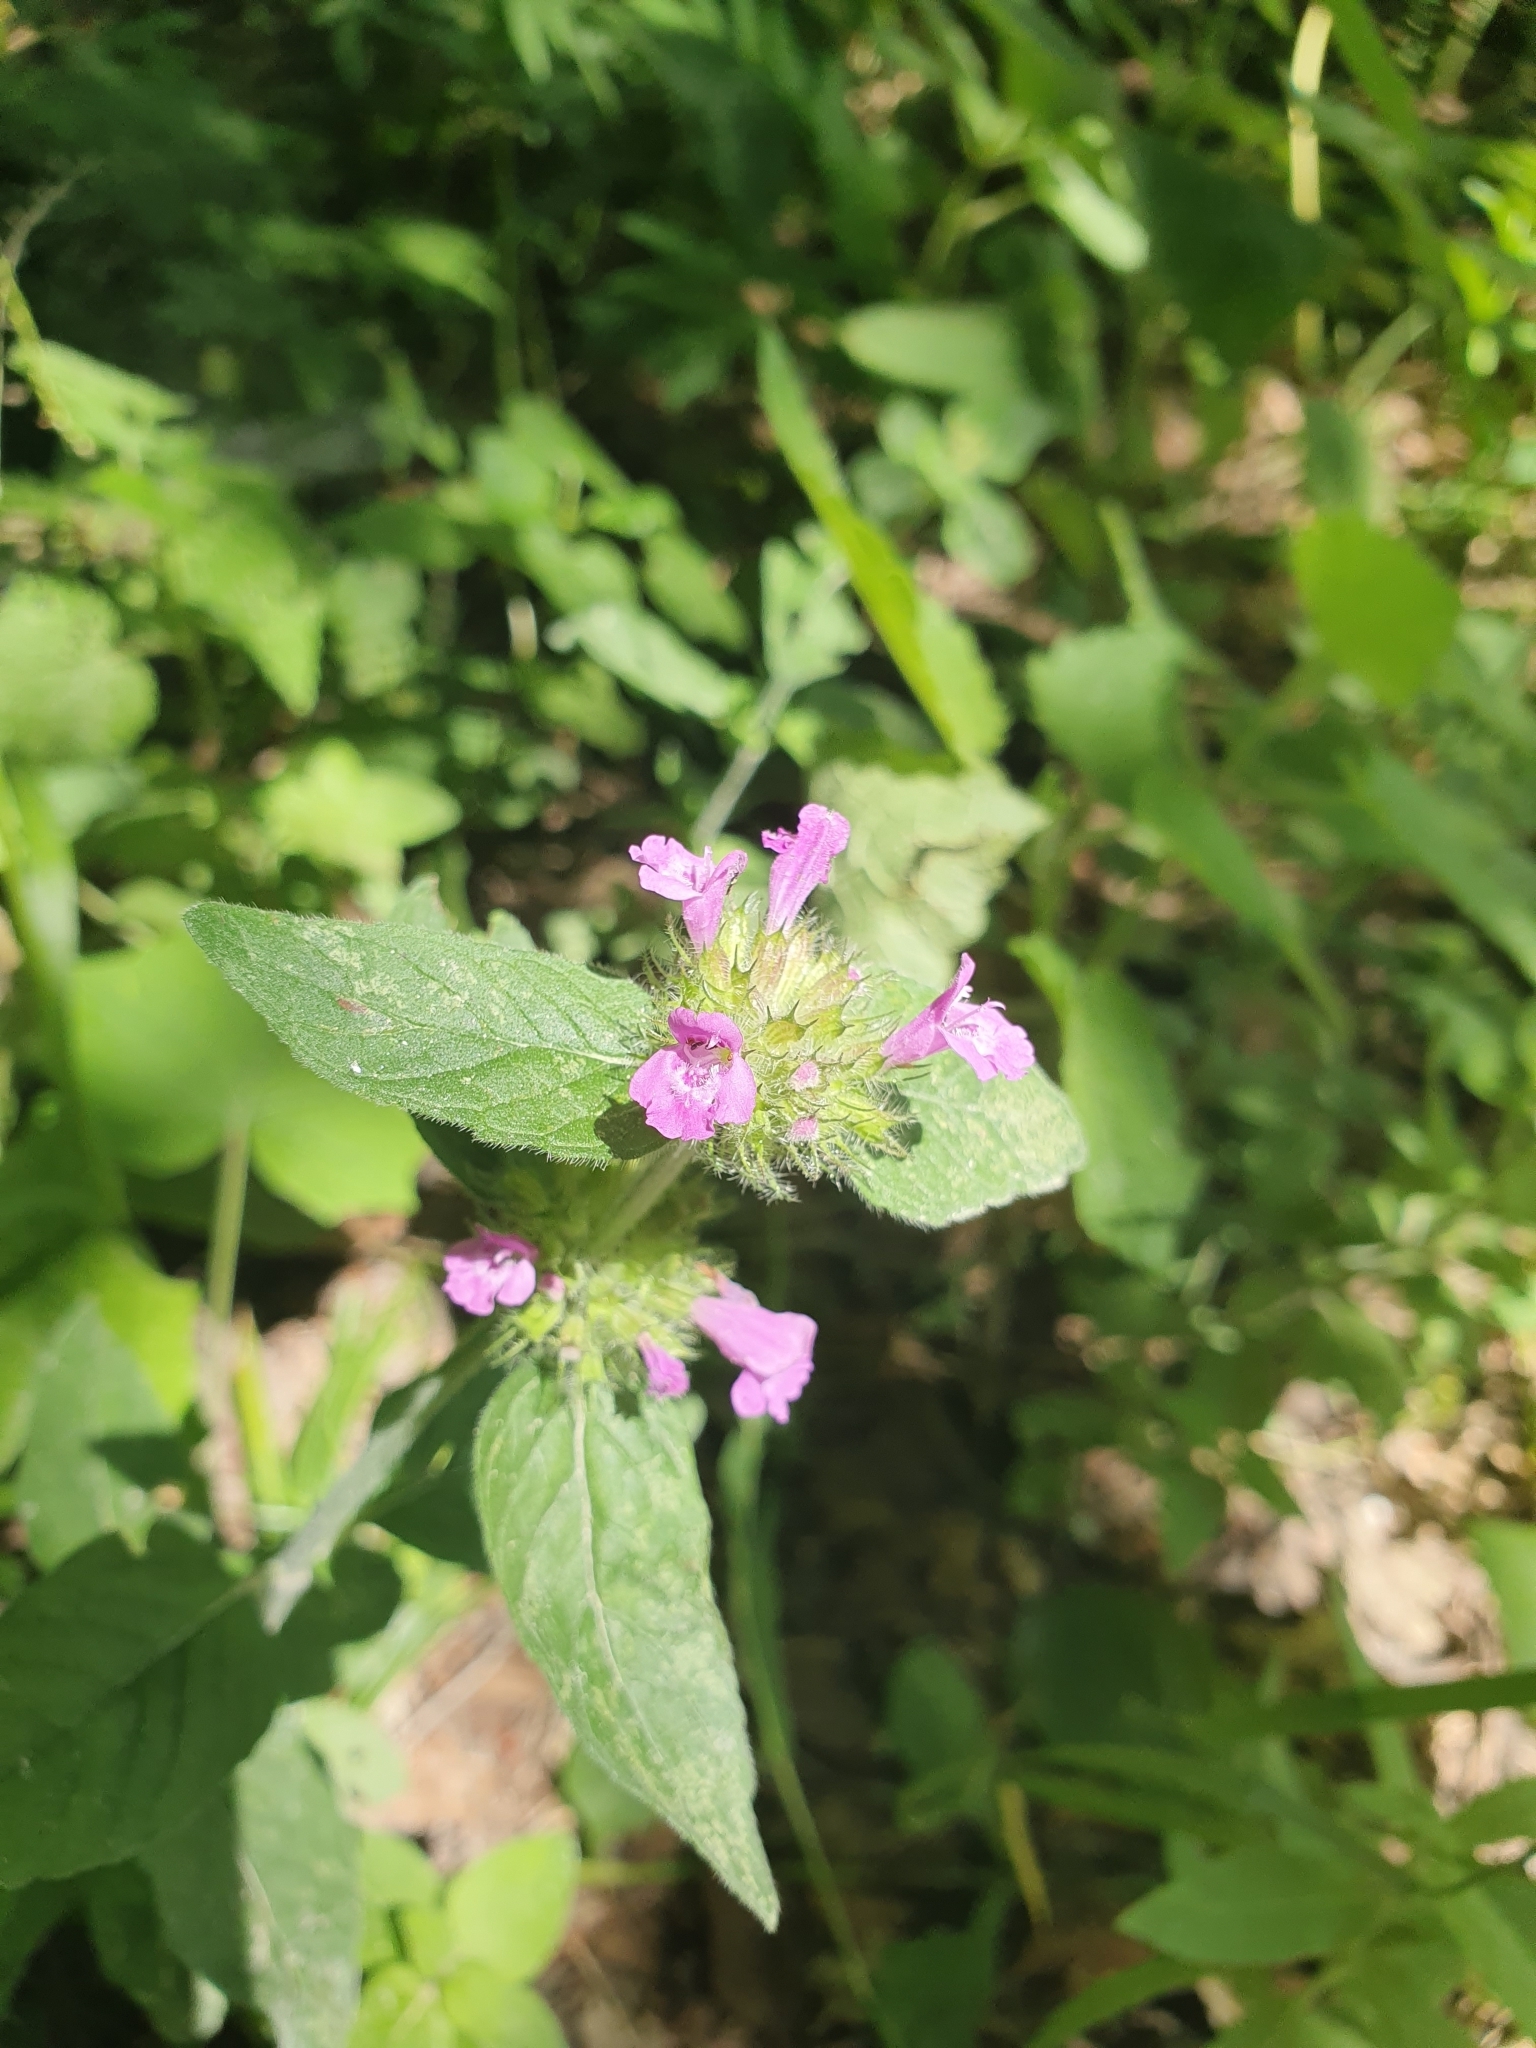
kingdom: Plantae
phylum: Tracheophyta
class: Magnoliopsida
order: Lamiales
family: Lamiaceae
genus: Clinopodium
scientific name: Clinopodium vulgare
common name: Wild basil
